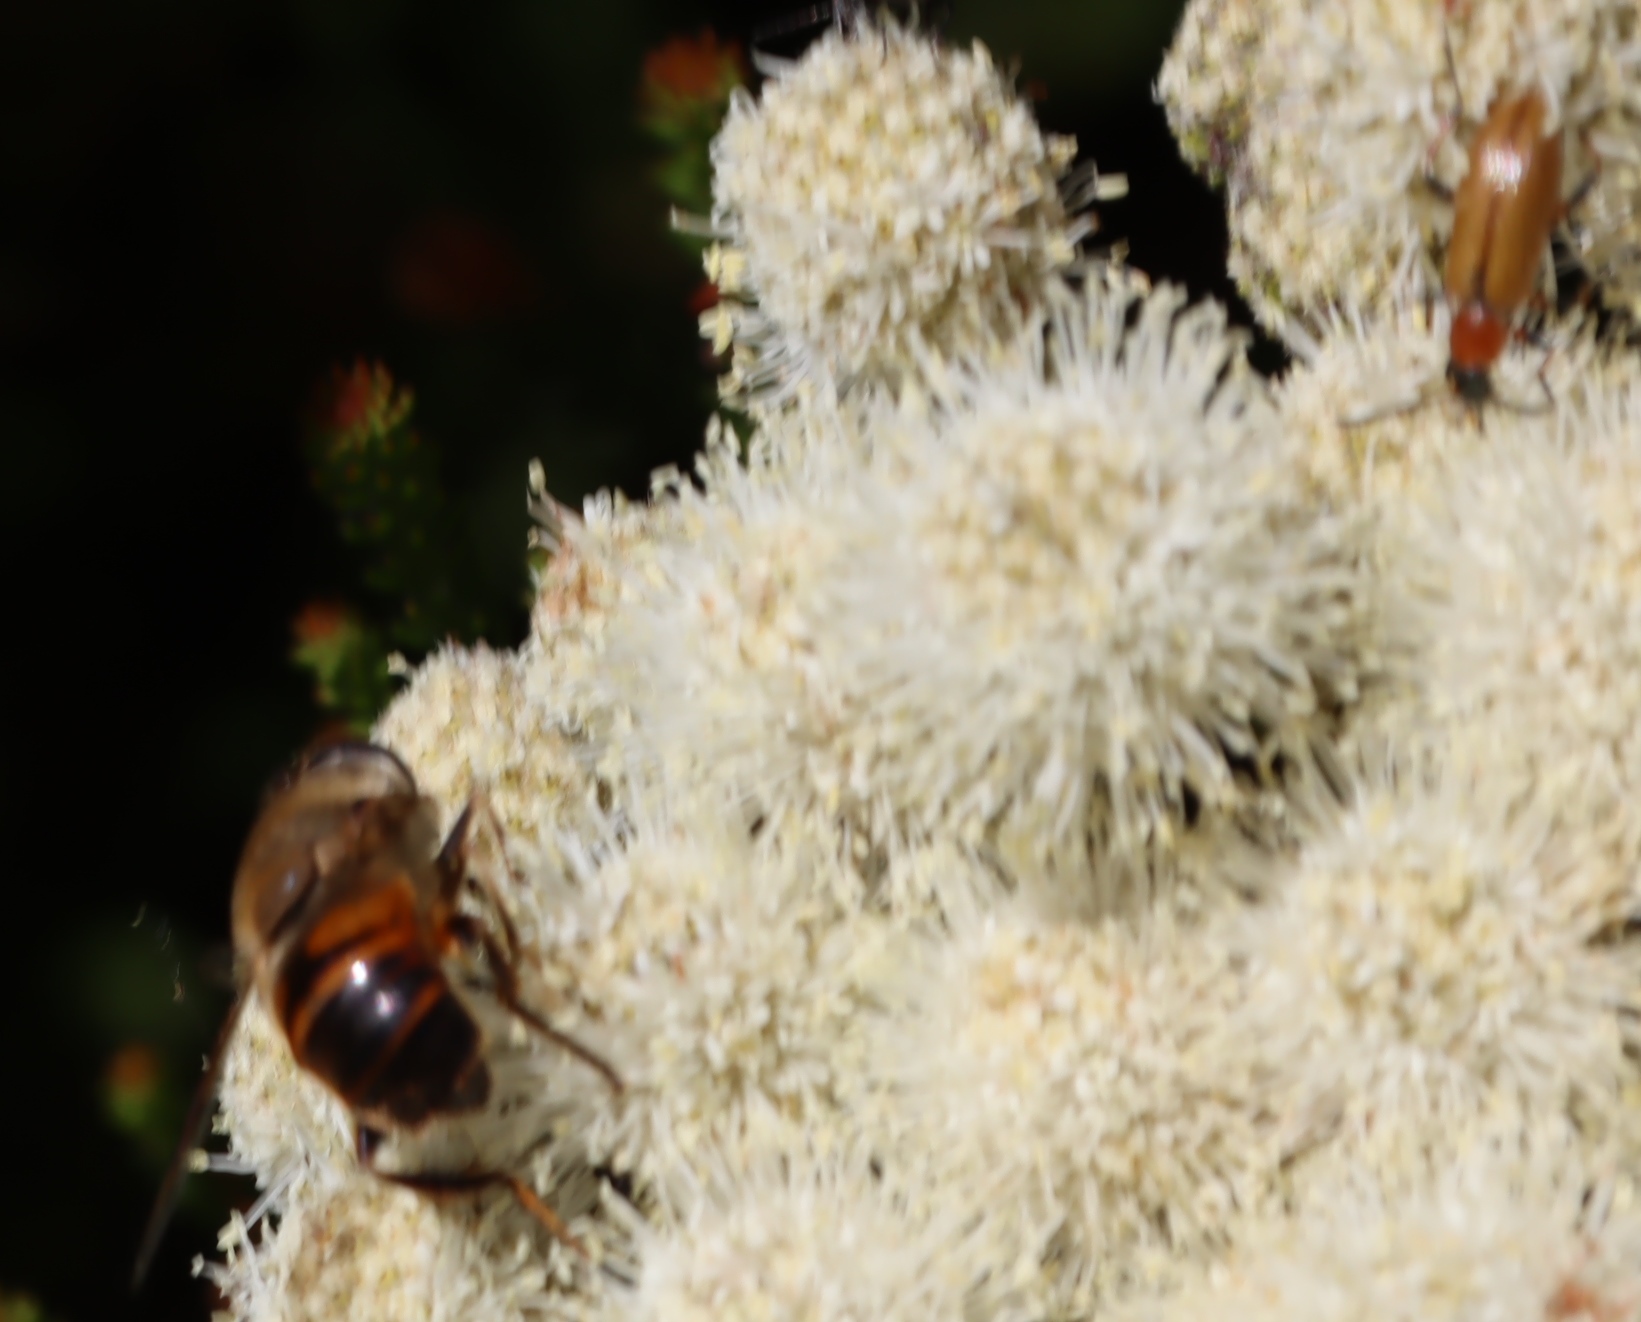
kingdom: Animalia
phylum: Arthropoda
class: Insecta
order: Diptera
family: Syrphidae
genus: Eristalis
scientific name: Eristalis tenax
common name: Drone fly
